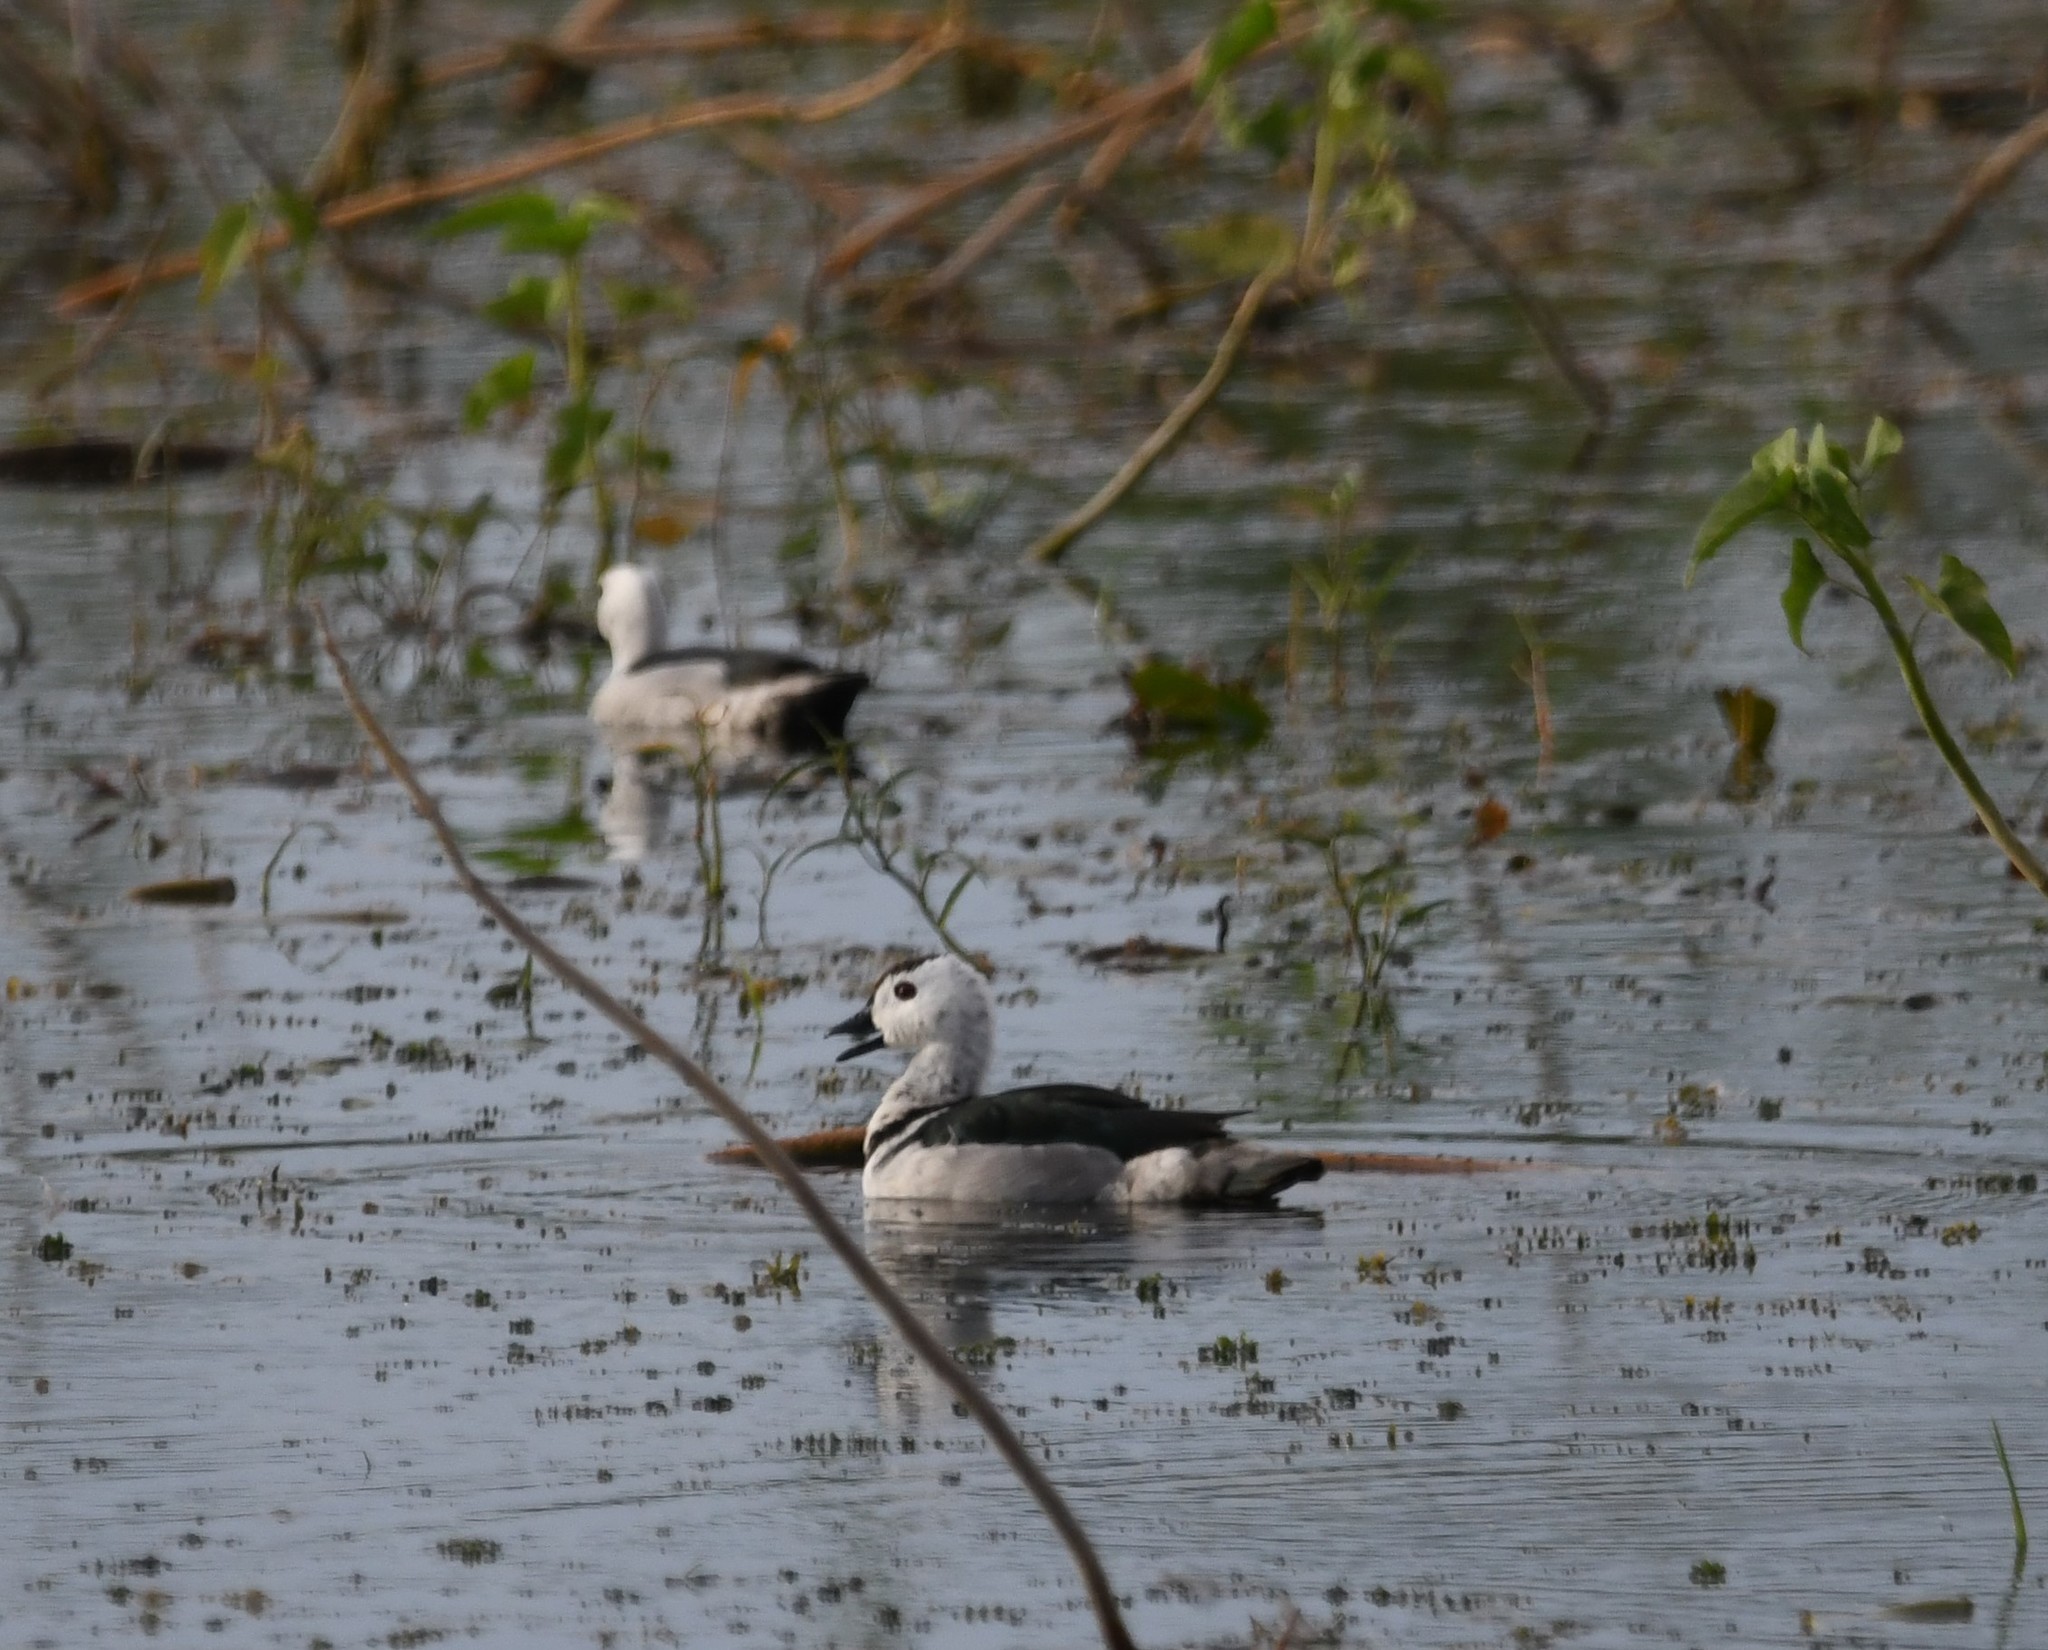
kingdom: Animalia
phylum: Chordata
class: Aves
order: Anseriformes
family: Anatidae
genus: Nettapus
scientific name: Nettapus coromandelianus
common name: Cotton pygmy-goose
